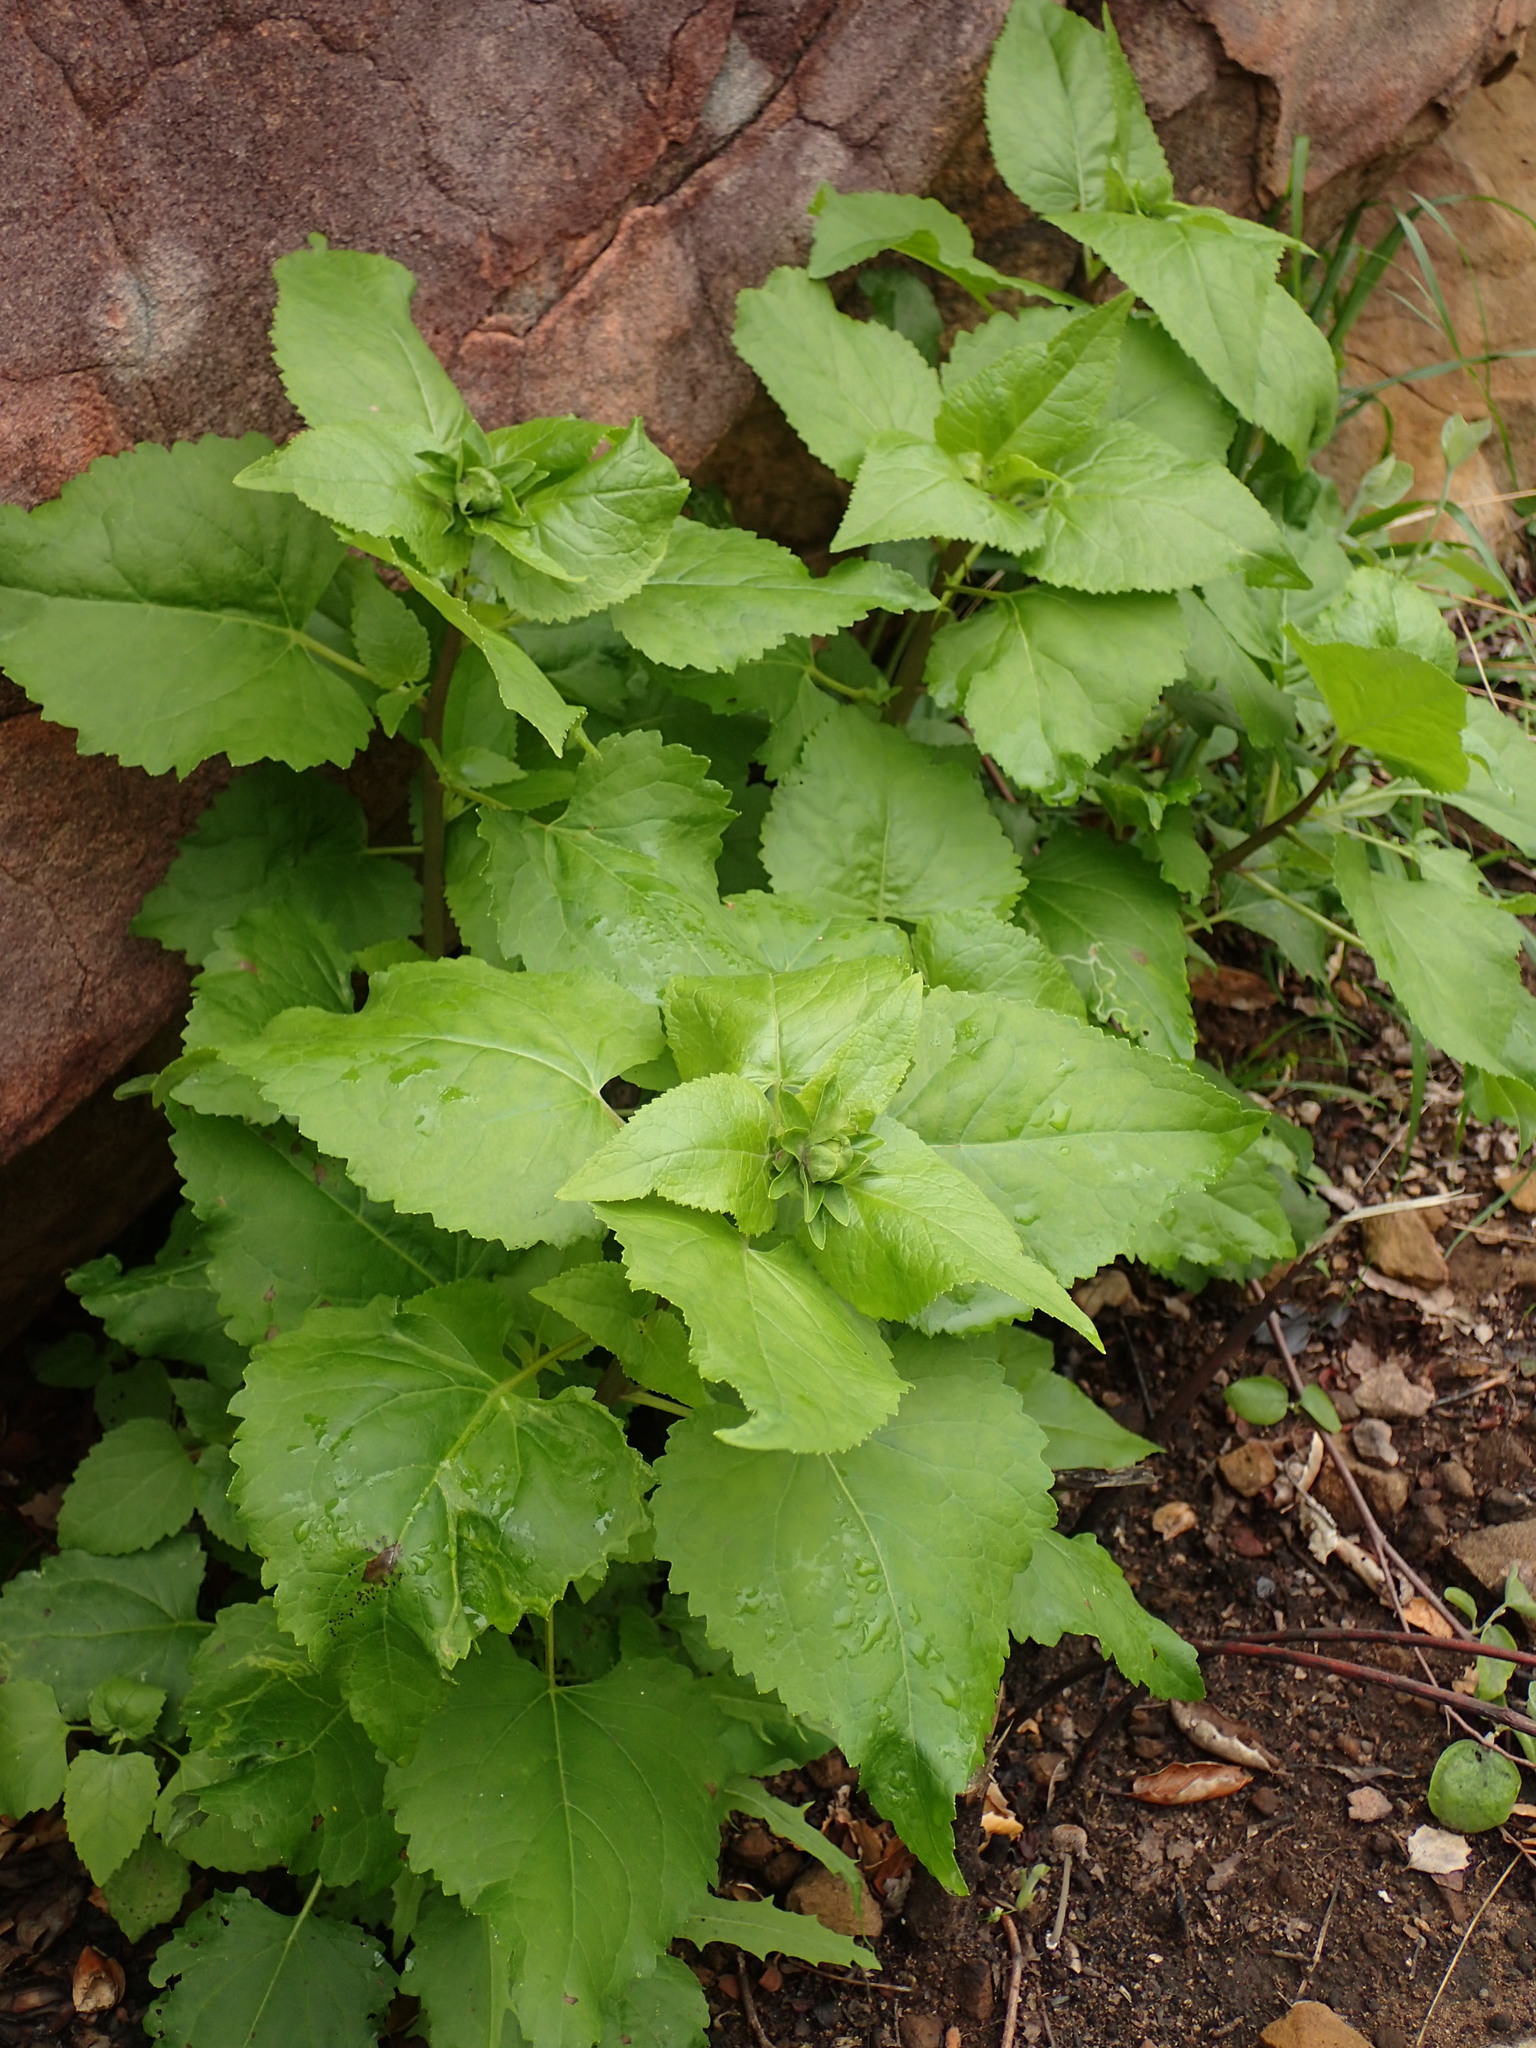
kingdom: Plantae
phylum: Tracheophyta
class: Magnoliopsida
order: Asterales
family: Asteraceae
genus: Venegasia
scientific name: Venegasia carpesioides
